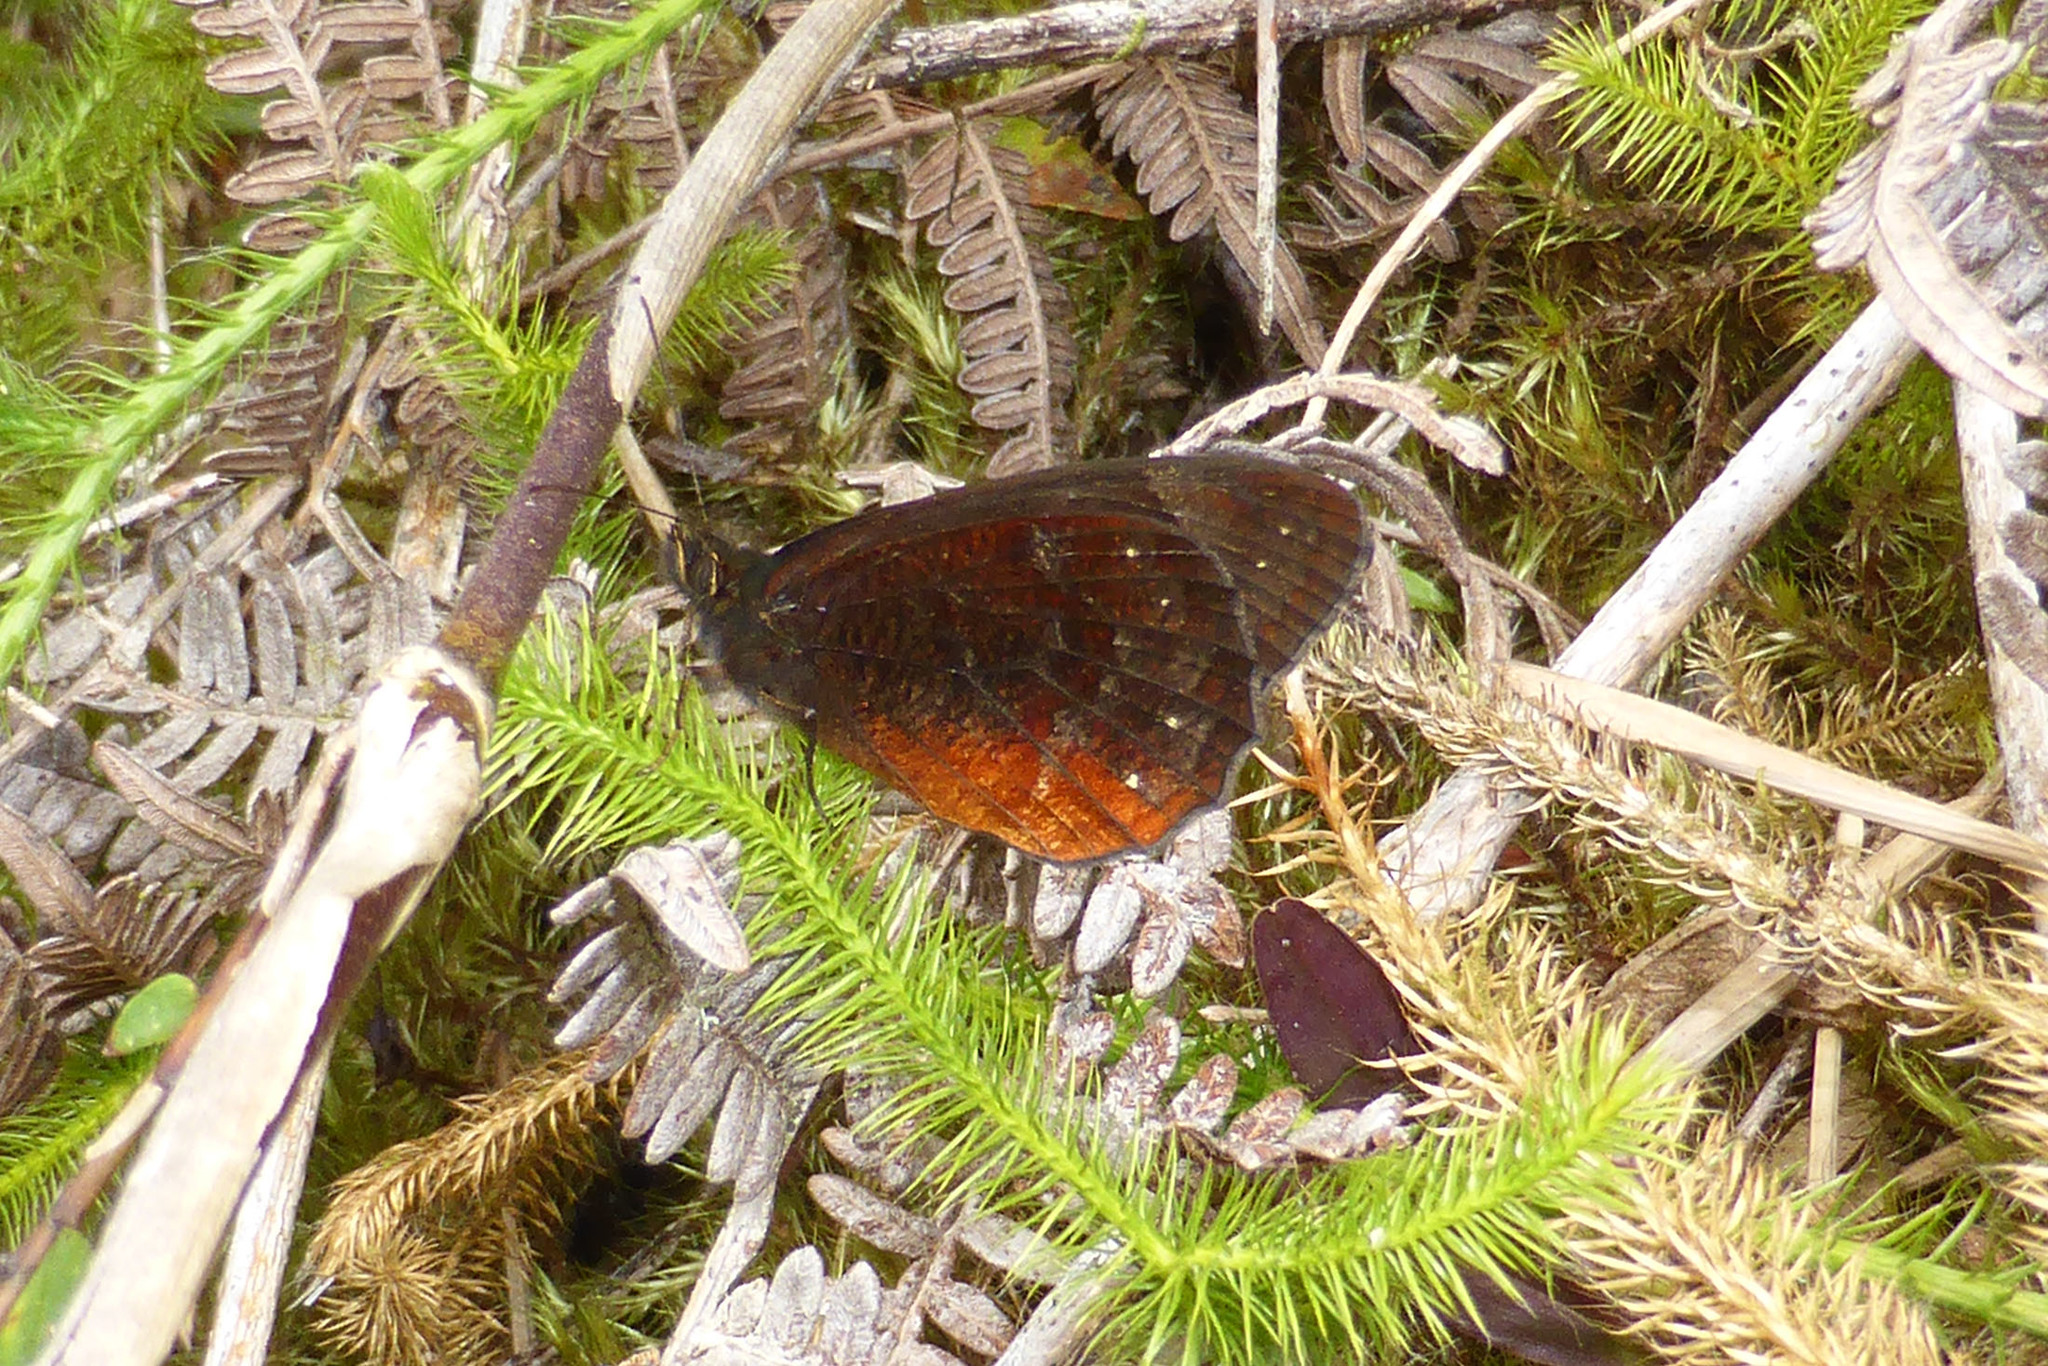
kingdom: Animalia
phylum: Arthropoda
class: Insecta
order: Lepidoptera
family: Nymphalidae
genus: Pedaliodes
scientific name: Pedaliodes roraimae
